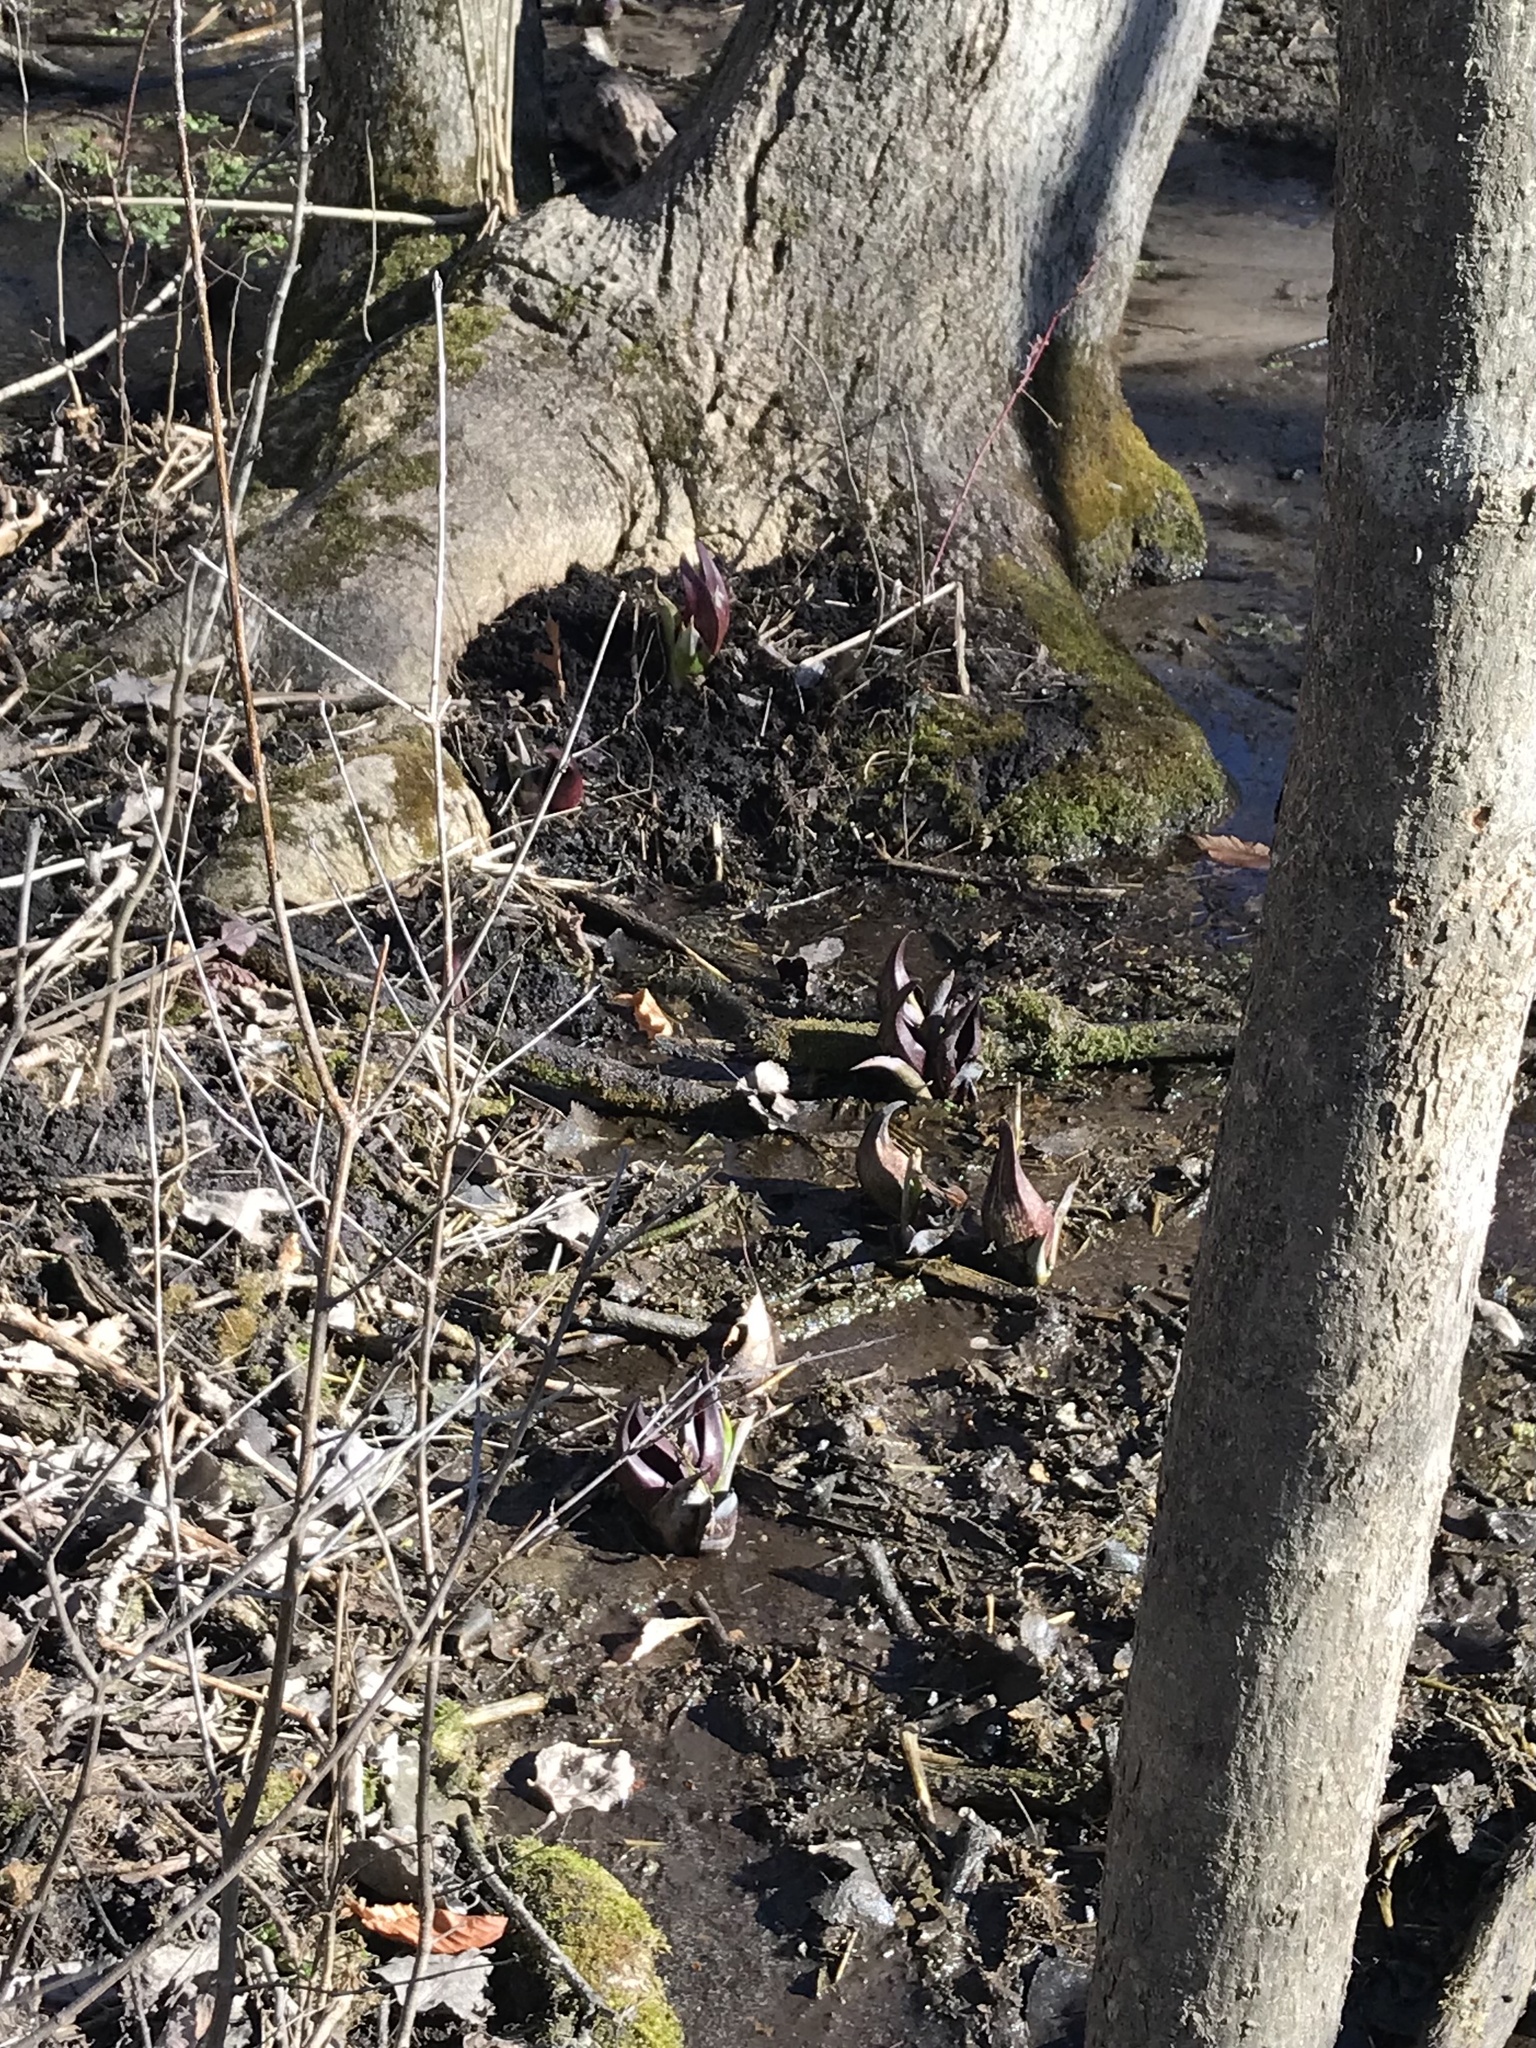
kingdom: Plantae
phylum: Tracheophyta
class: Liliopsida
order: Alismatales
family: Araceae
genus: Symplocarpus
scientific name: Symplocarpus foetidus
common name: Eastern skunk cabbage
